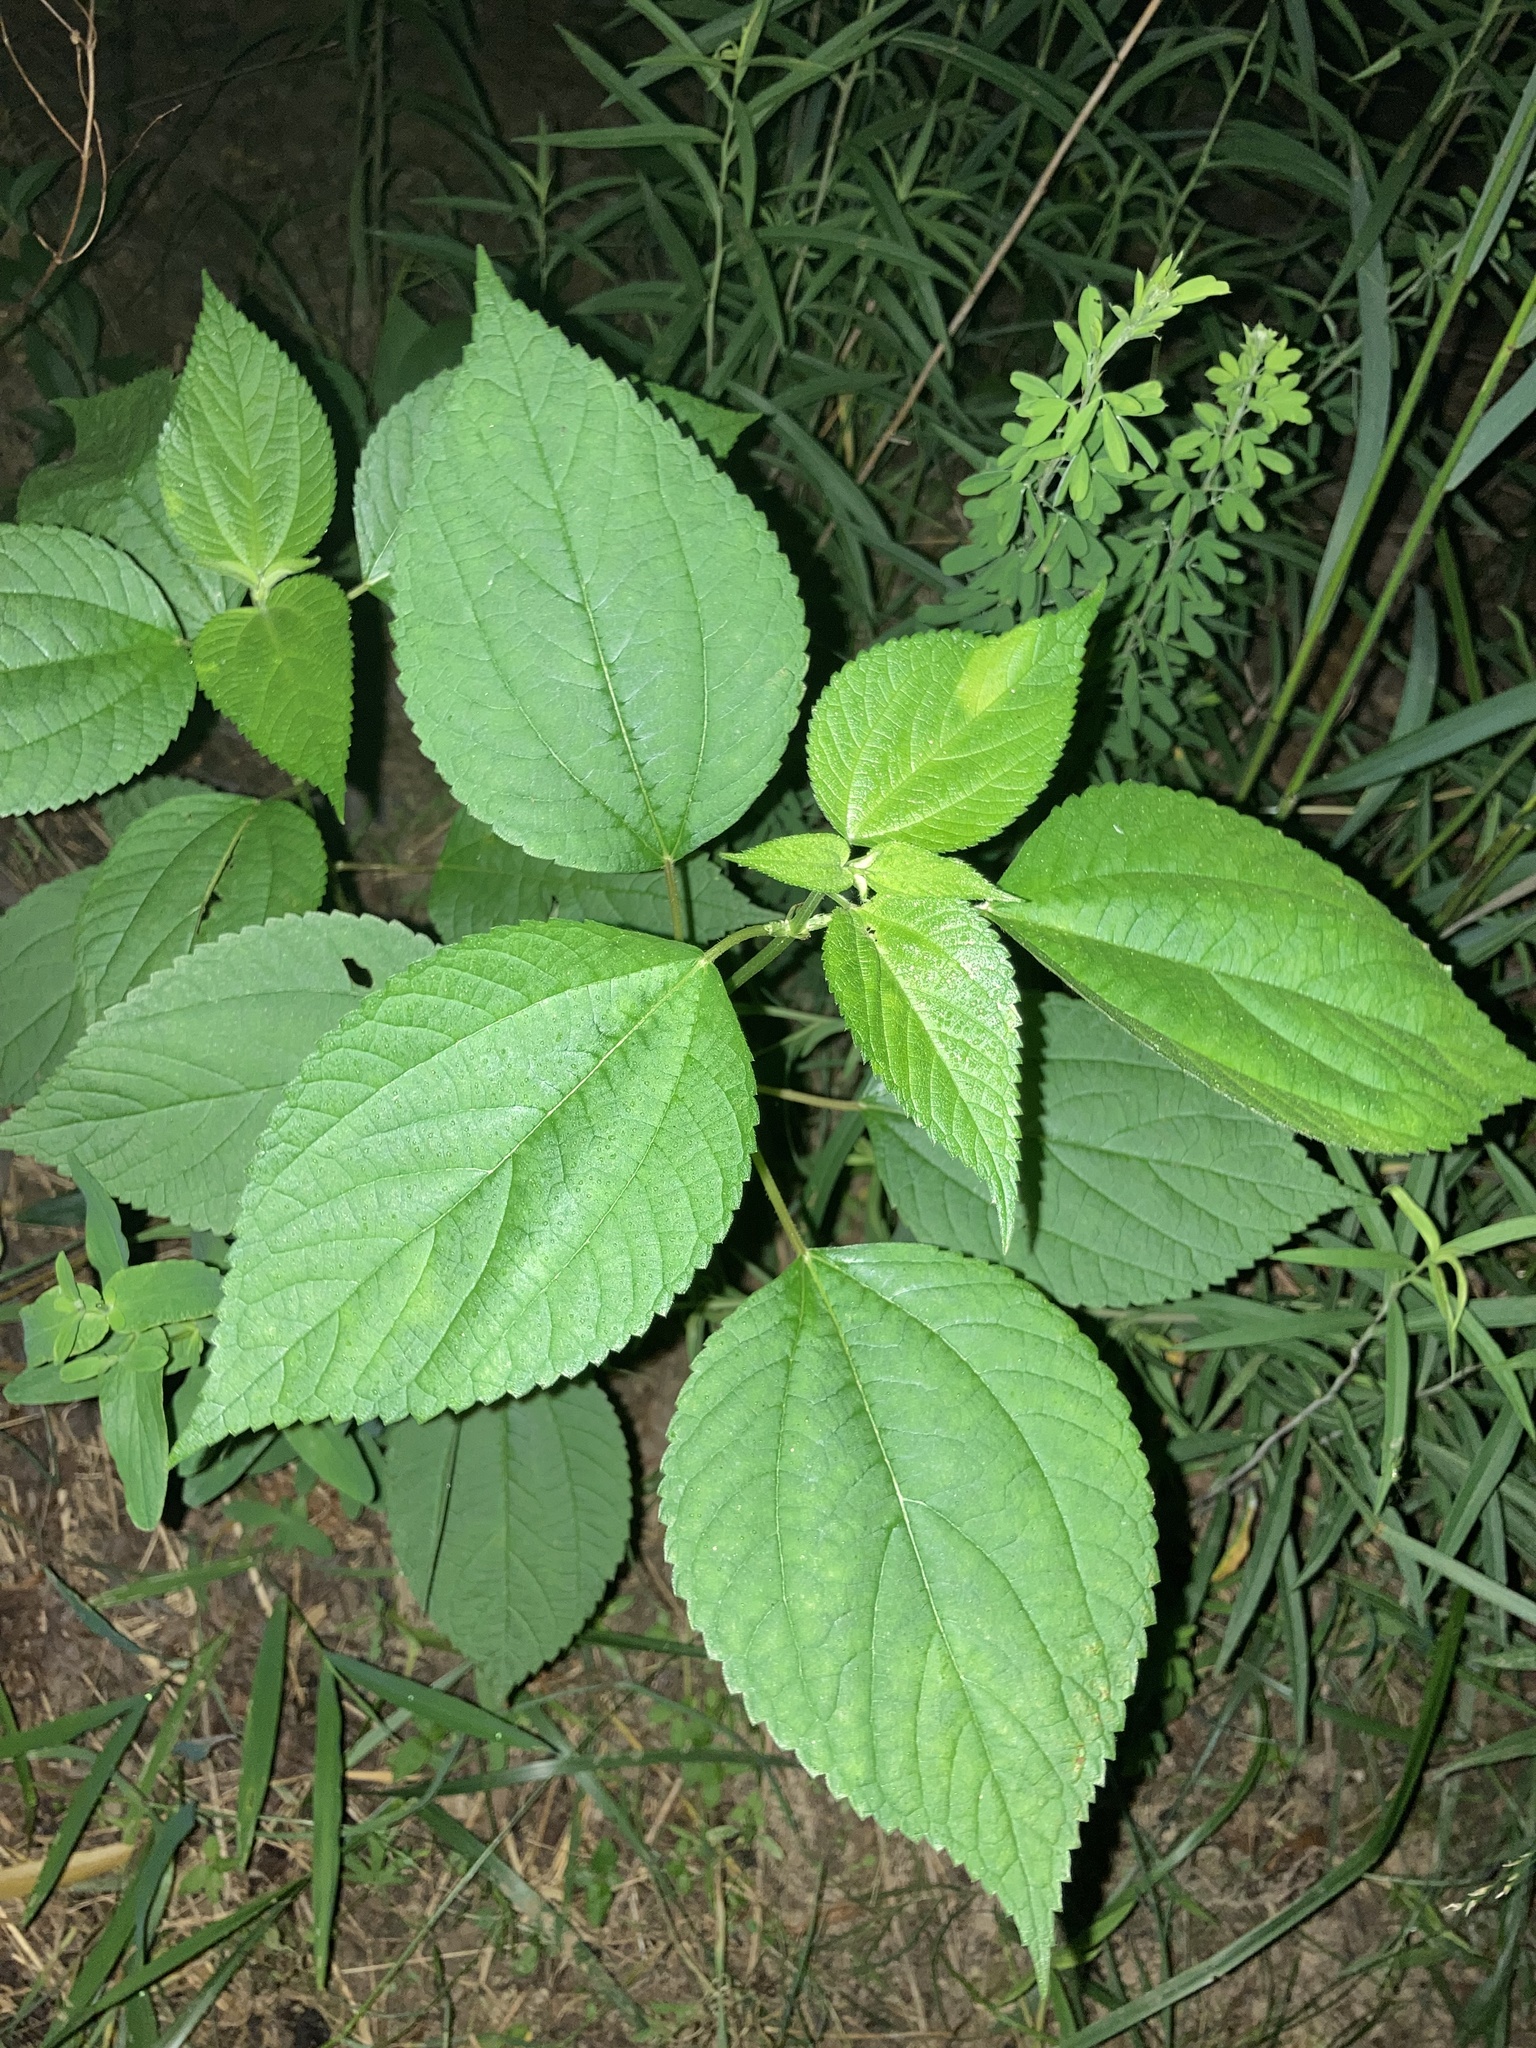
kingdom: Plantae
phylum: Tracheophyta
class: Magnoliopsida
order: Rosales
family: Urticaceae
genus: Boehmeria
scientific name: Boehmeria cylindrica
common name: Bog-hemp
